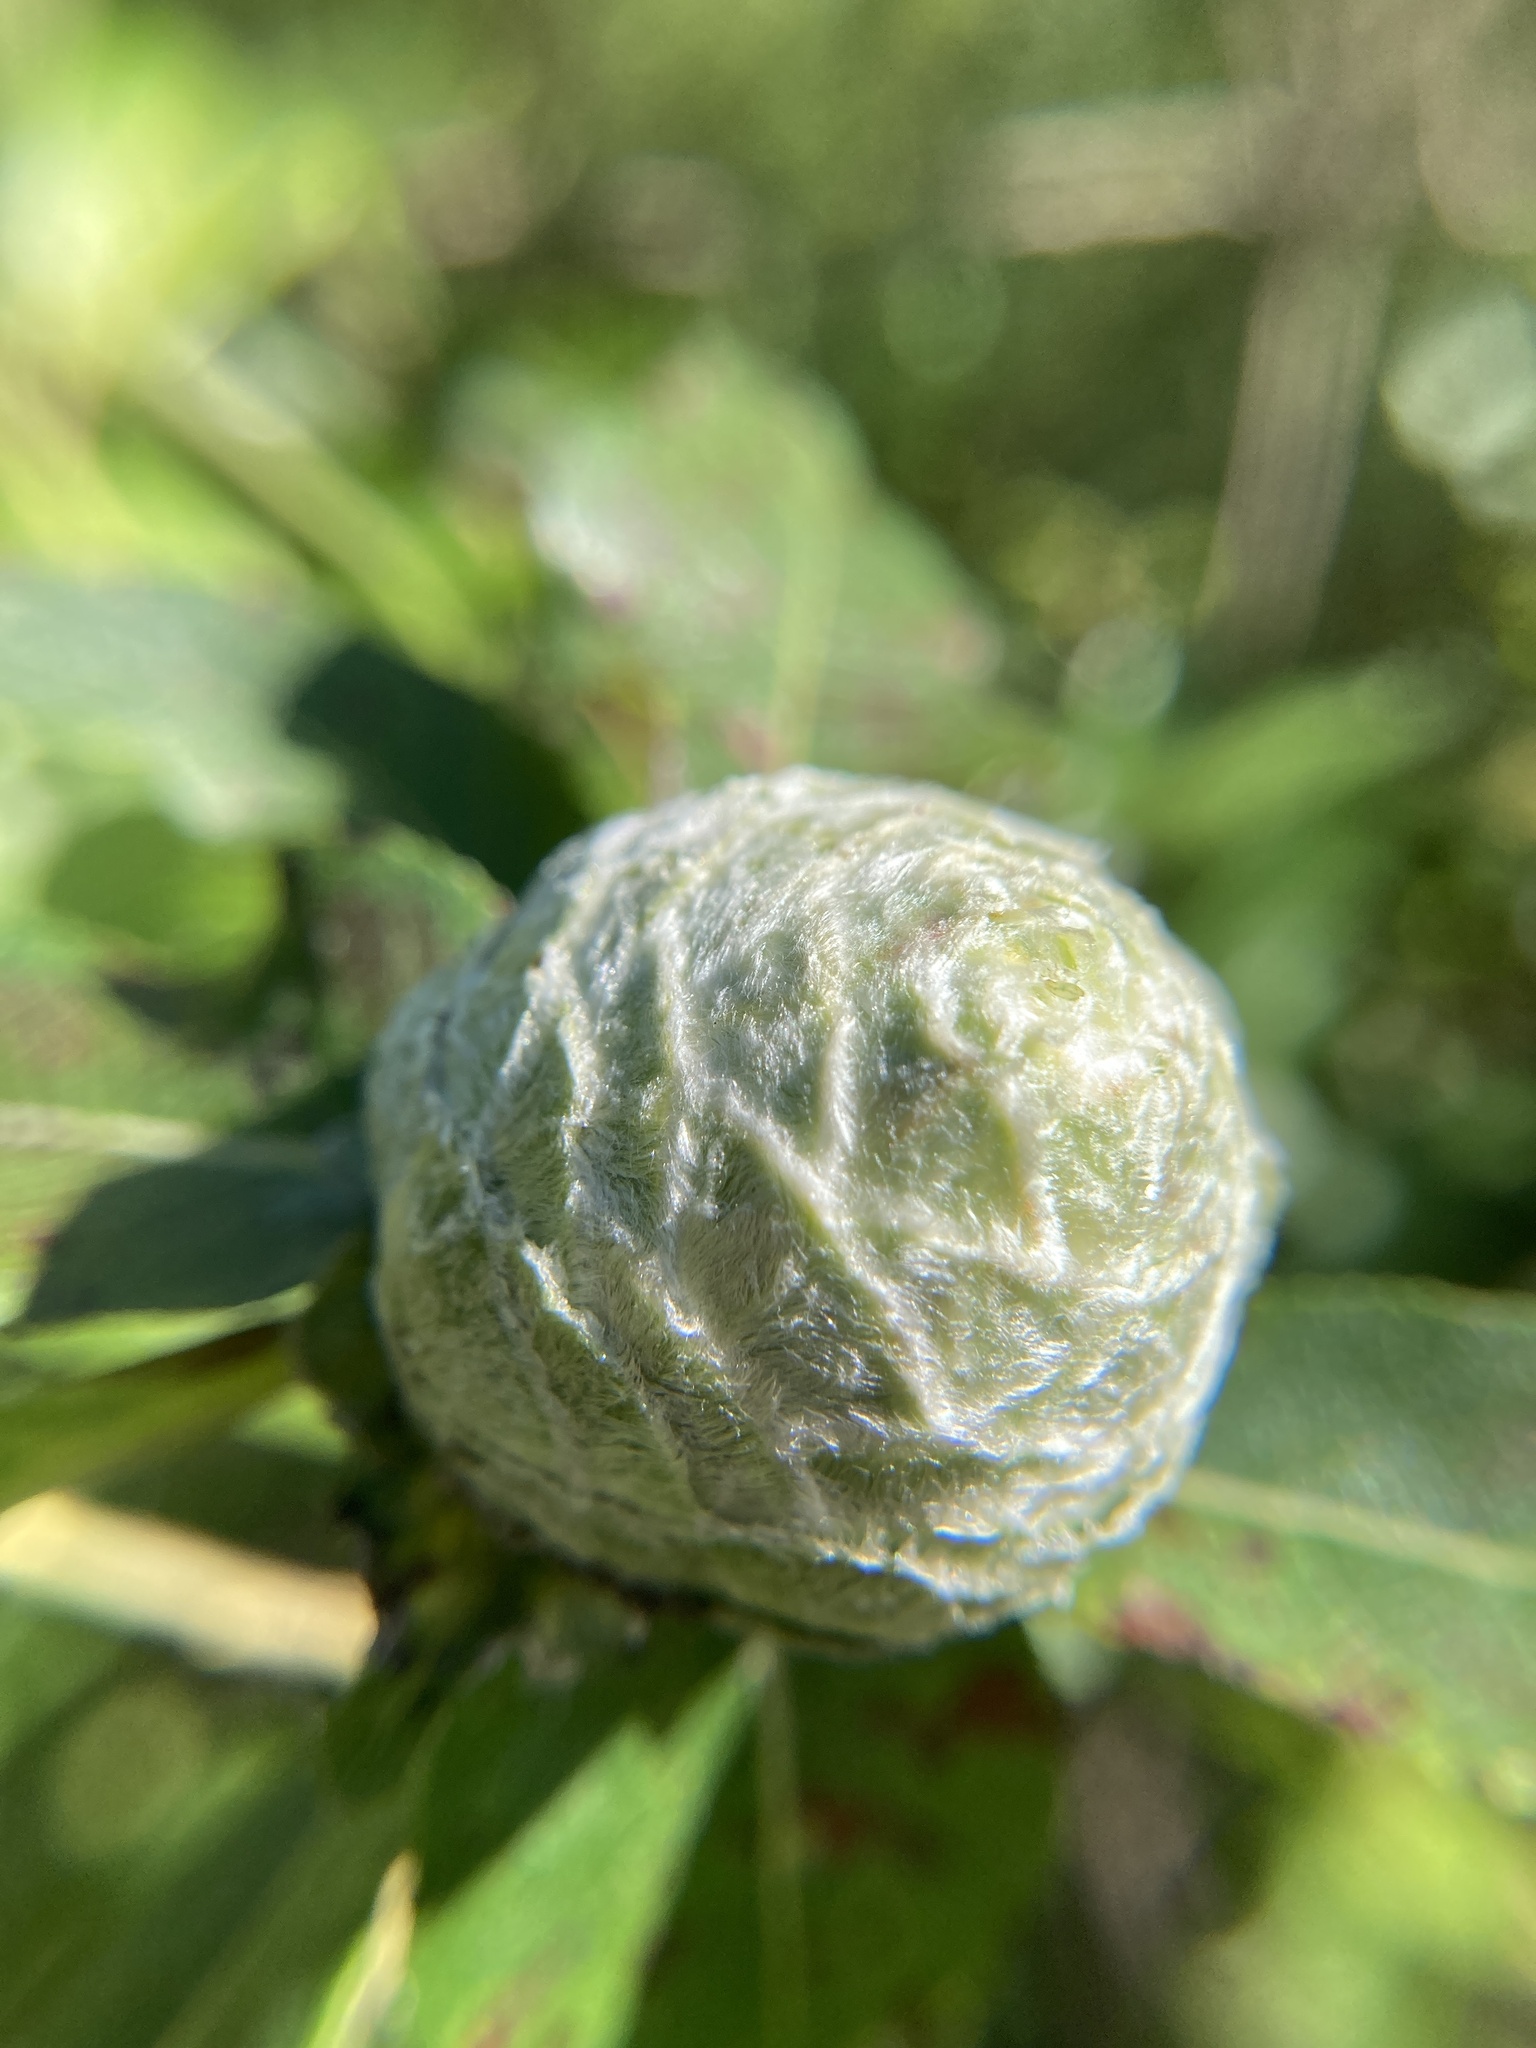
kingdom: Animalia
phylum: Arthropoda
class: Insecta
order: Diptera
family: Cecidomyiidae
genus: Rabdophaga
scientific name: Rabdophaga strobiloides
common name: Willow pinecone gall midge
